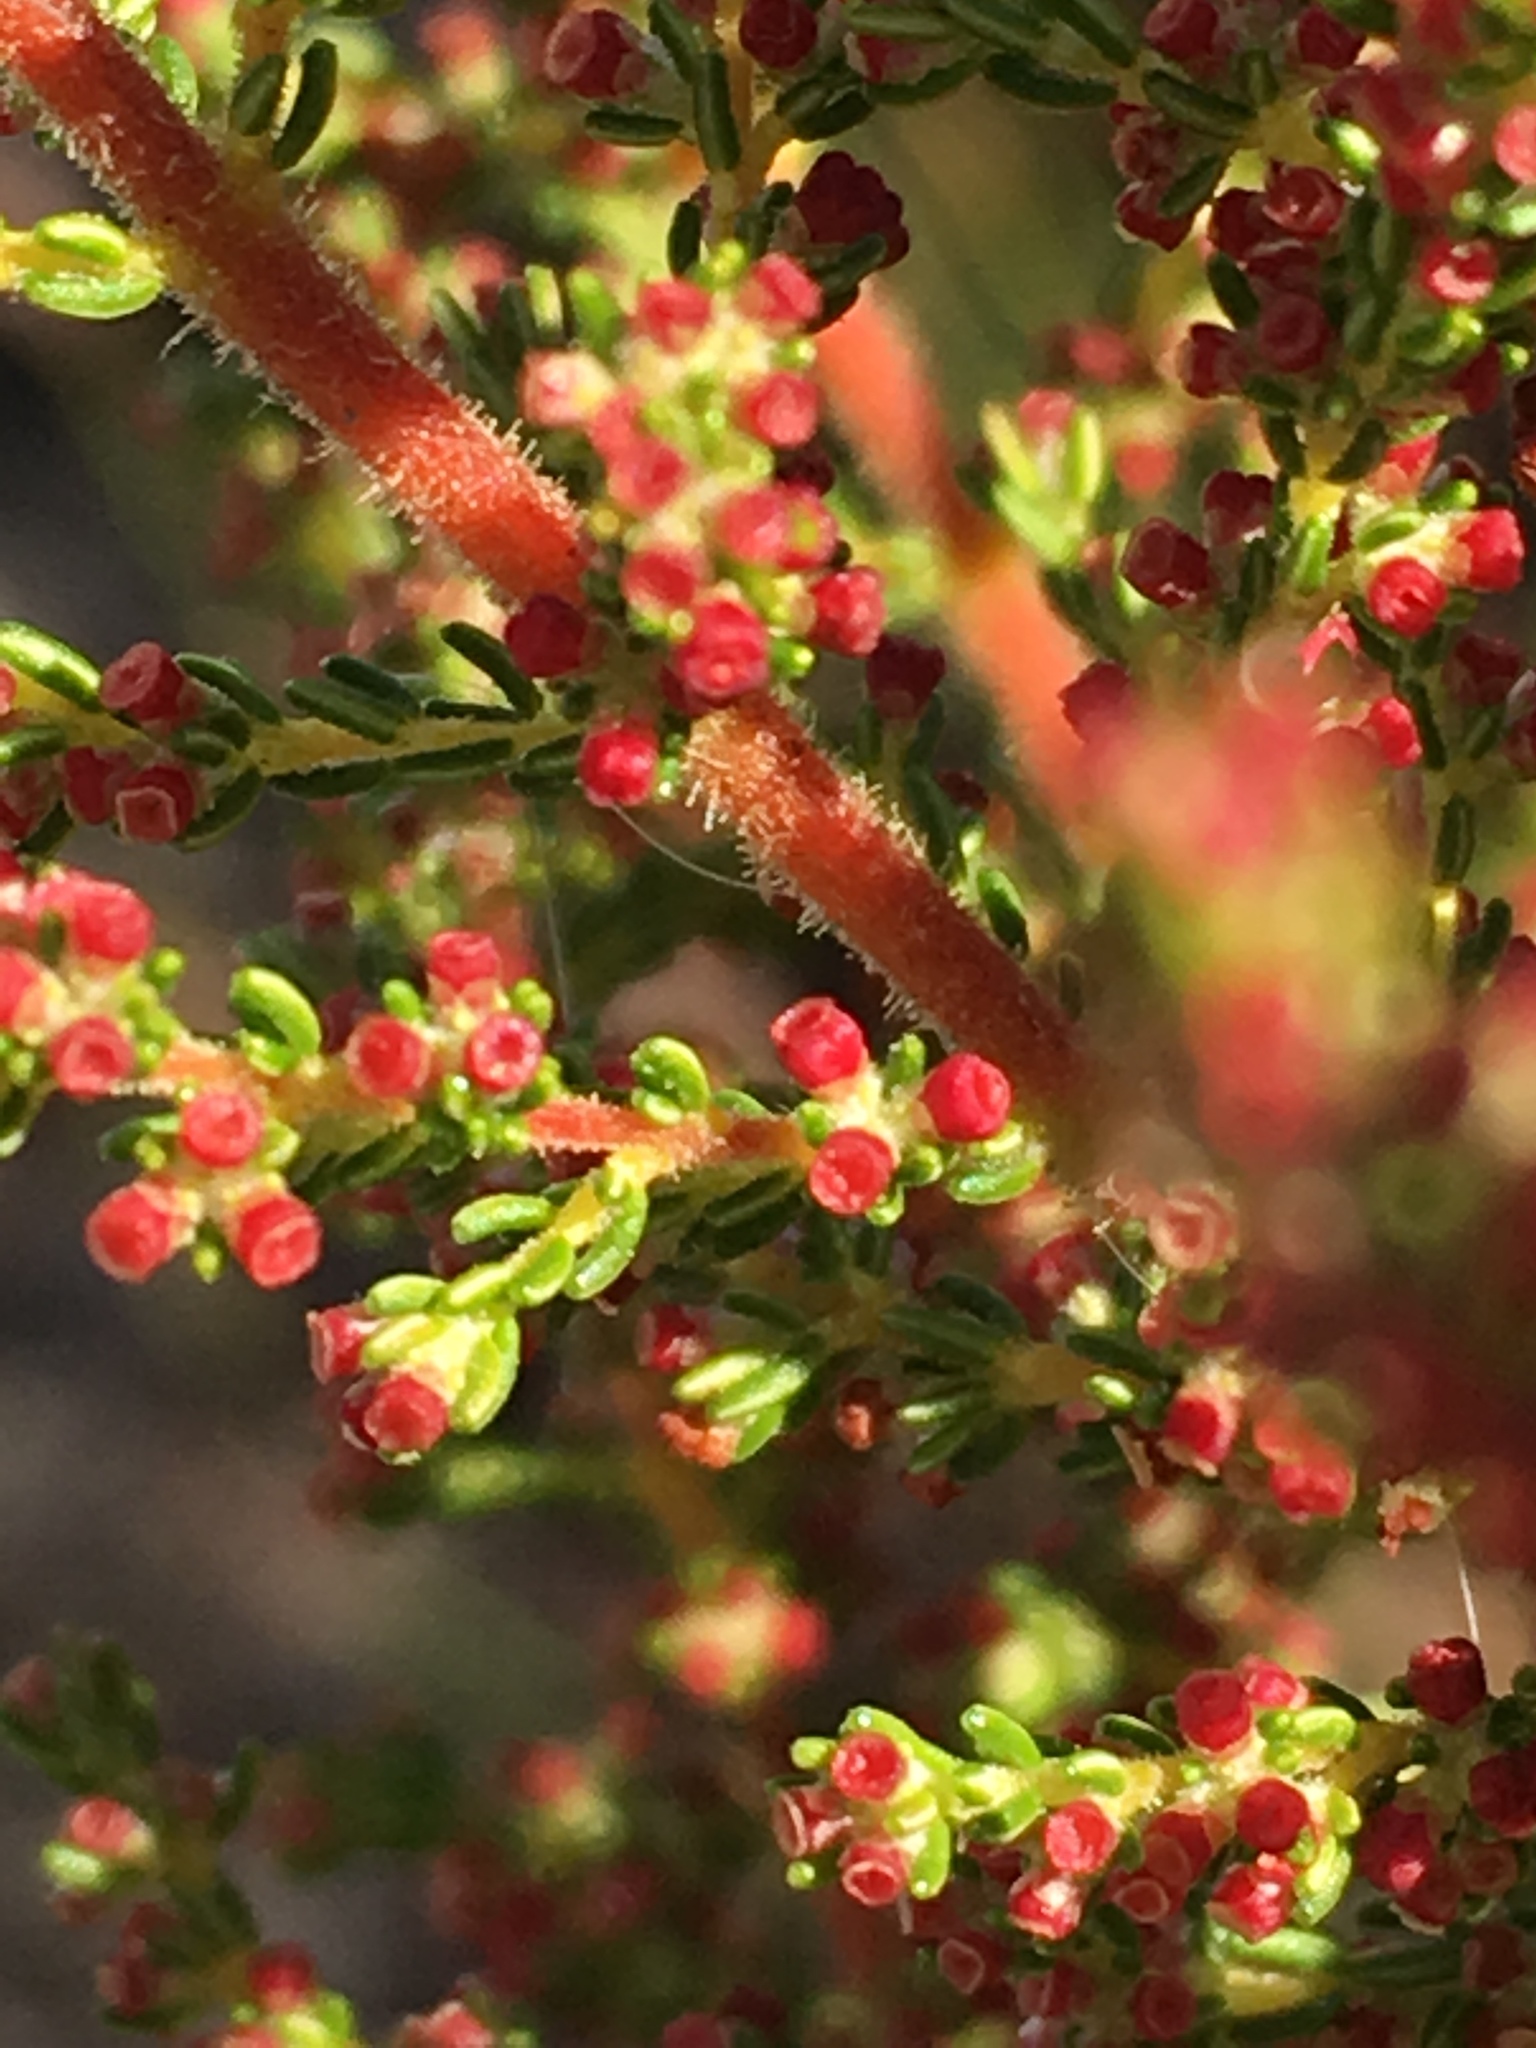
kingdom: Plantae
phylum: Tracheophyta
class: Magnoliopsida
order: Ericales
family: Ericaceae
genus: Erica
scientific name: Erica muscosa
